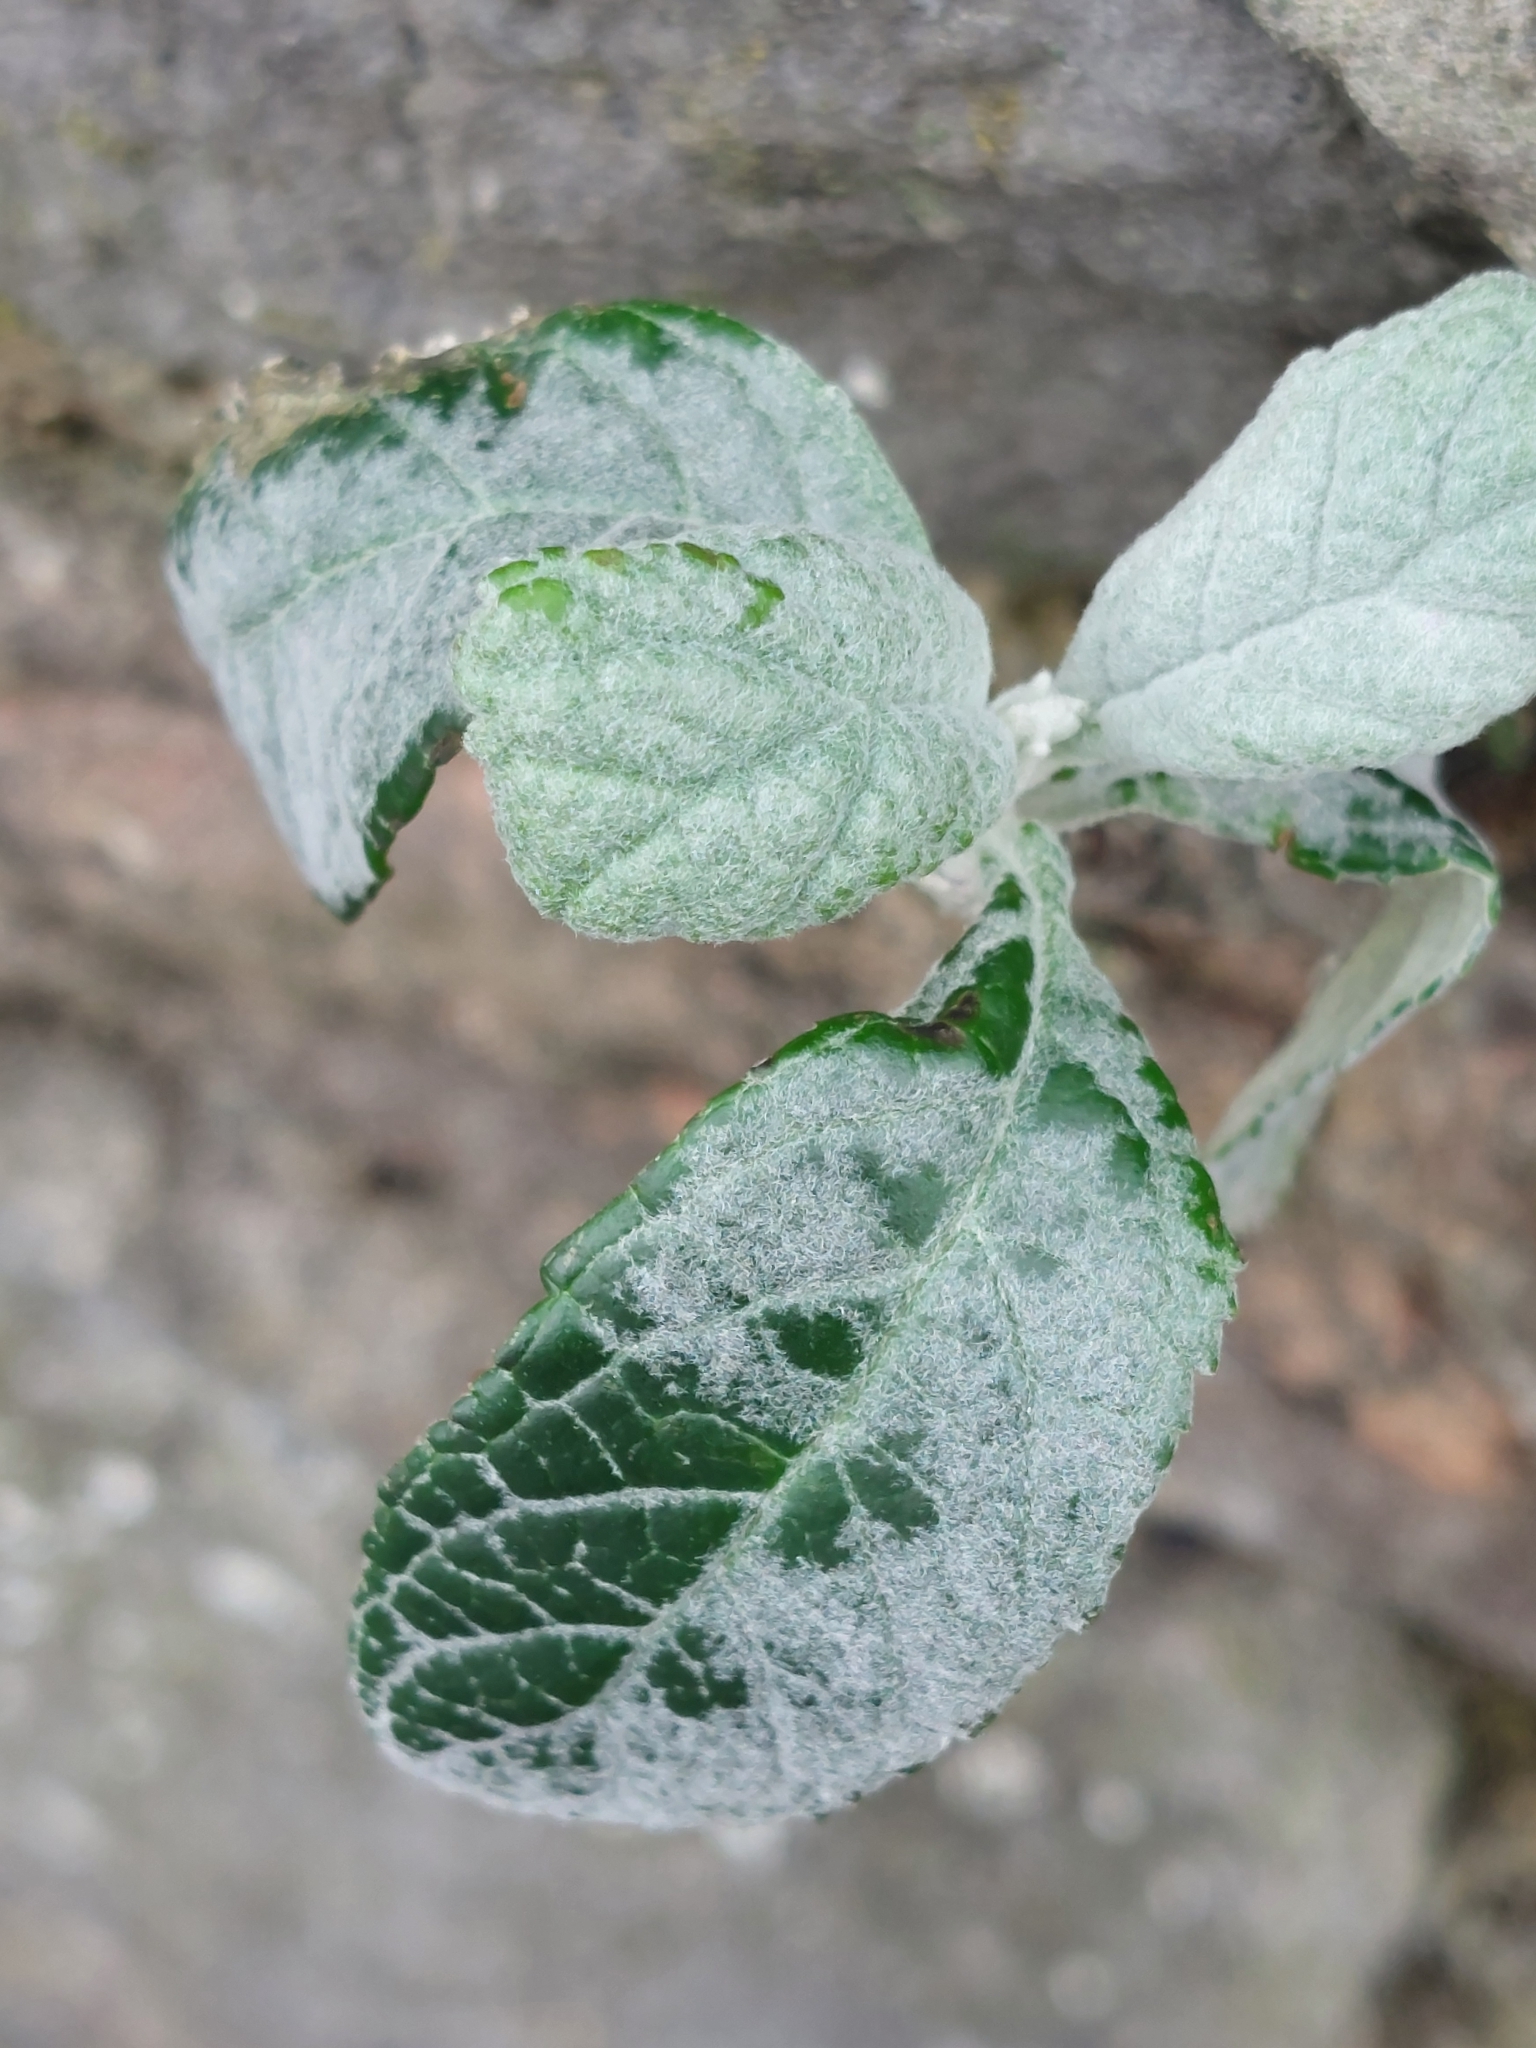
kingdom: Plantae
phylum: Tracheophyta
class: Magnoliopsida
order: Lamiales
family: Scrophulariaceae
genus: Buddleja
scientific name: Buddleja davidii
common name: Butterfly-bush
